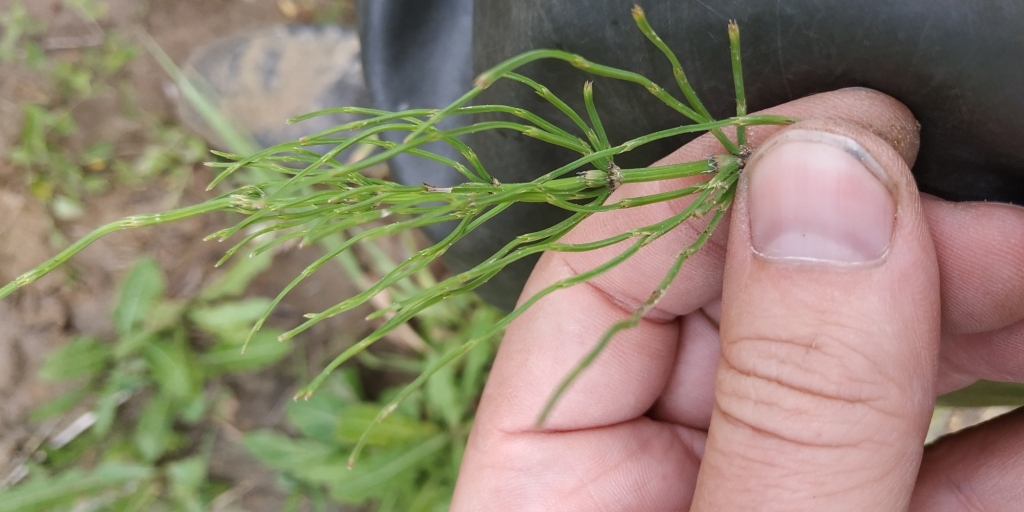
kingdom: Plantae
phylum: Tracheophyta
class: Polypodiopsida
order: Equisetales
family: Equisetaceae
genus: Equisetum
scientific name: Equisetum arvense
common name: Field horsetail
